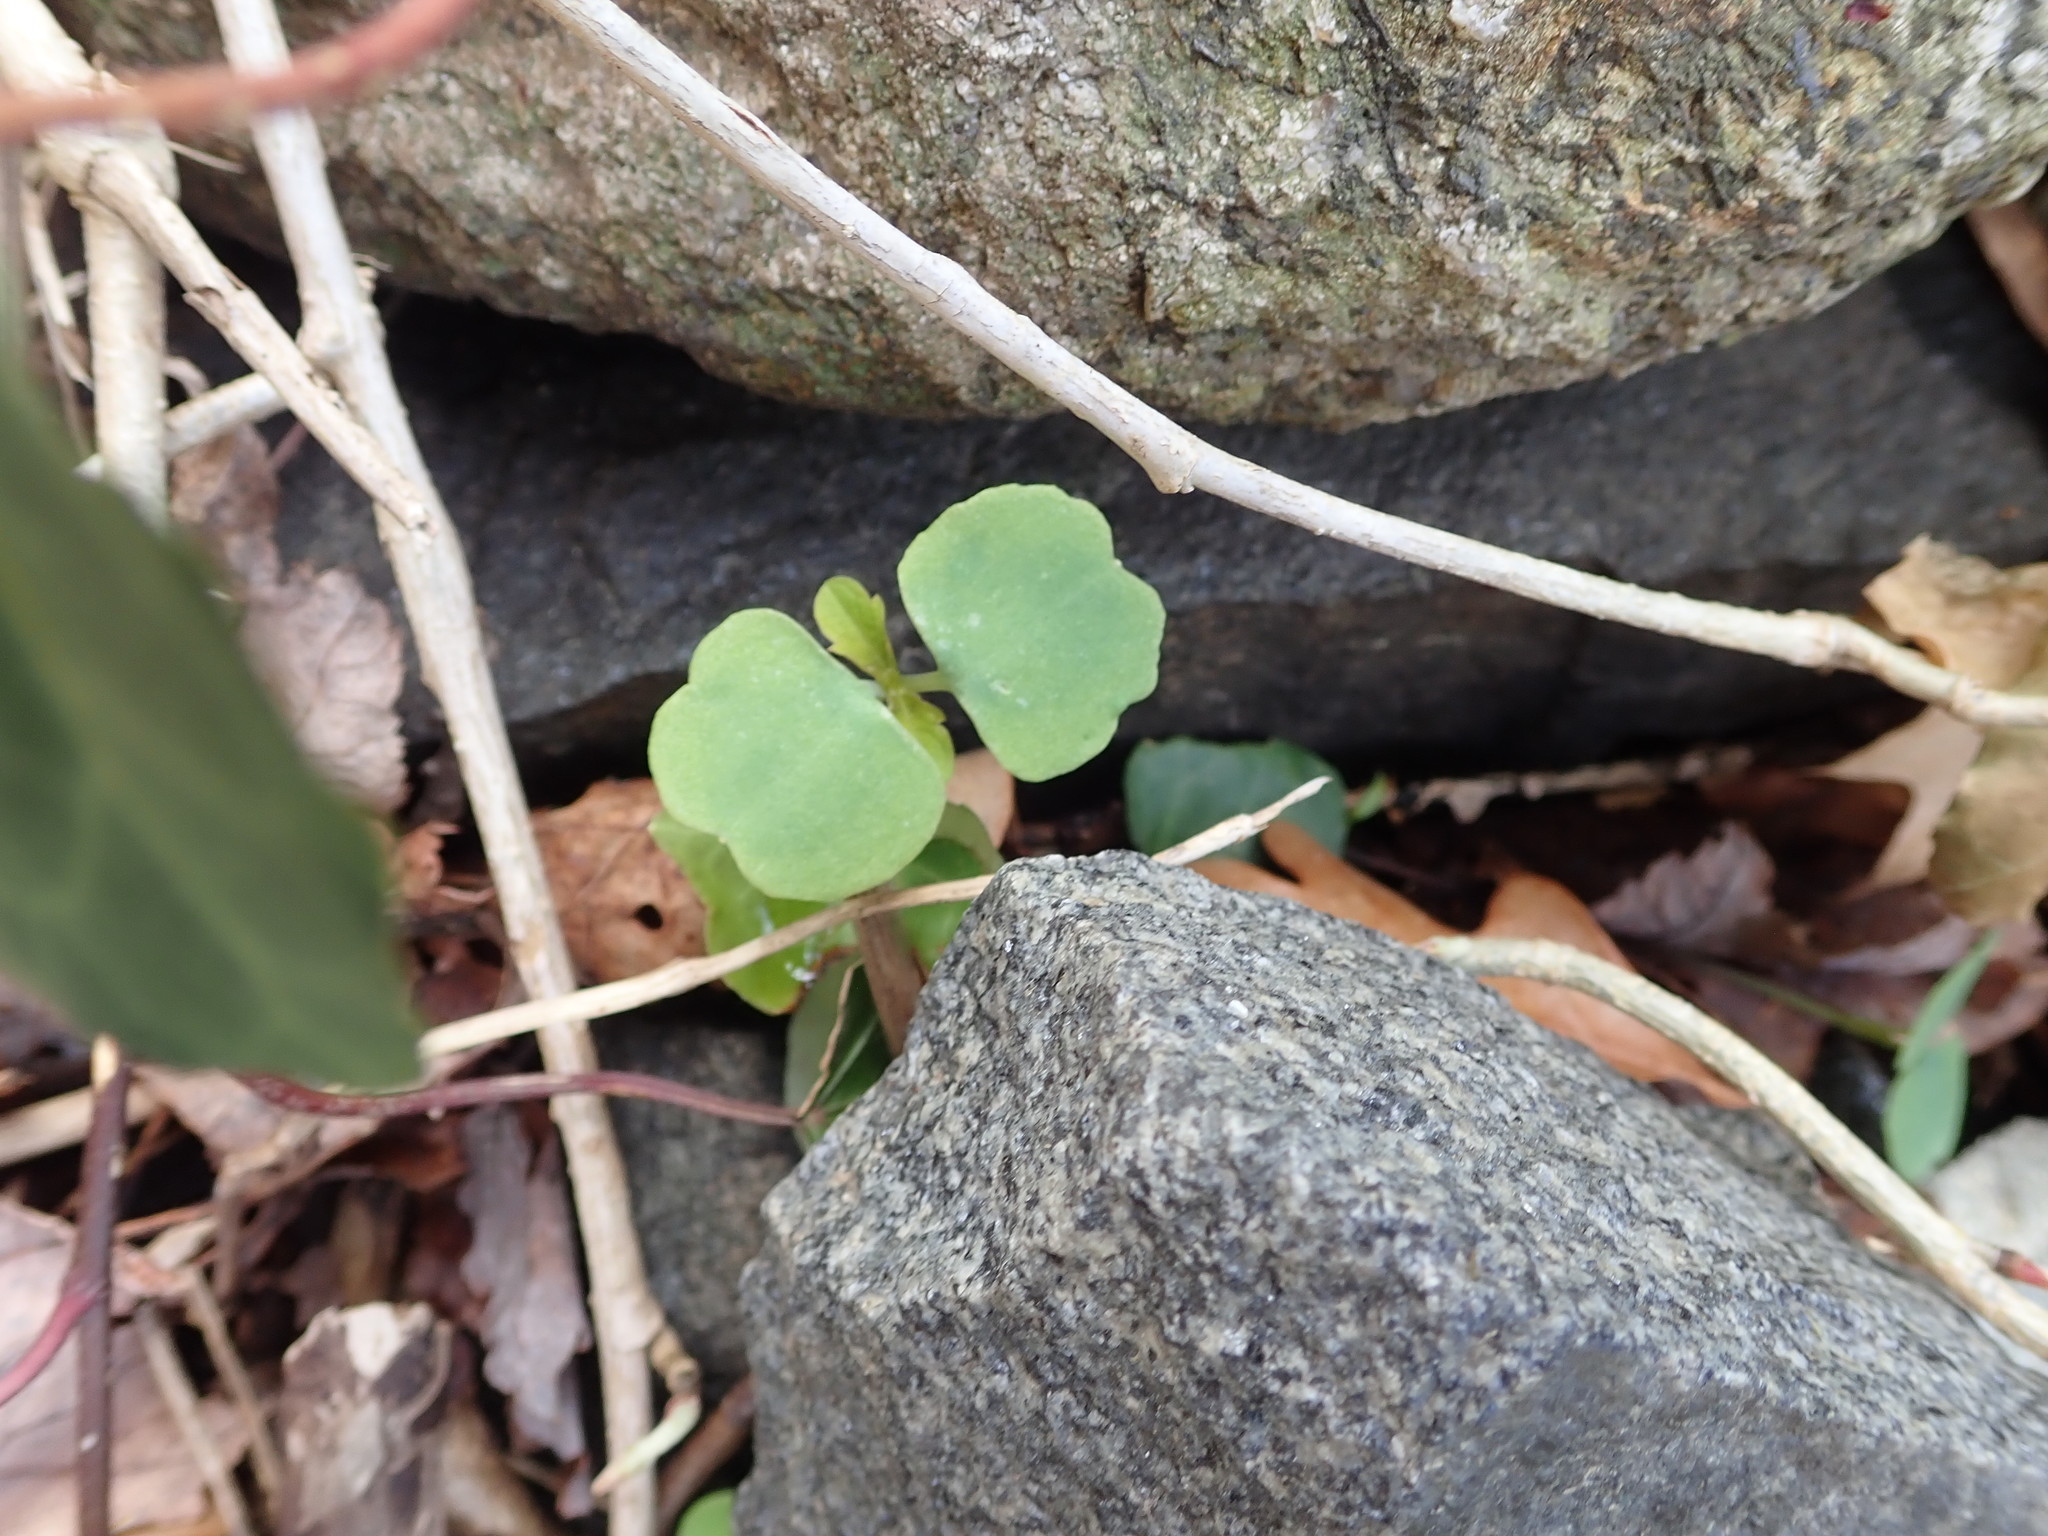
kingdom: Plantae
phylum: Tracheophyta
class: Magnoliopsida
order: Ericales
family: Balsaminaceae
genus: Impatiens
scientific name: Impatiens capensis
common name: Orange balsam
